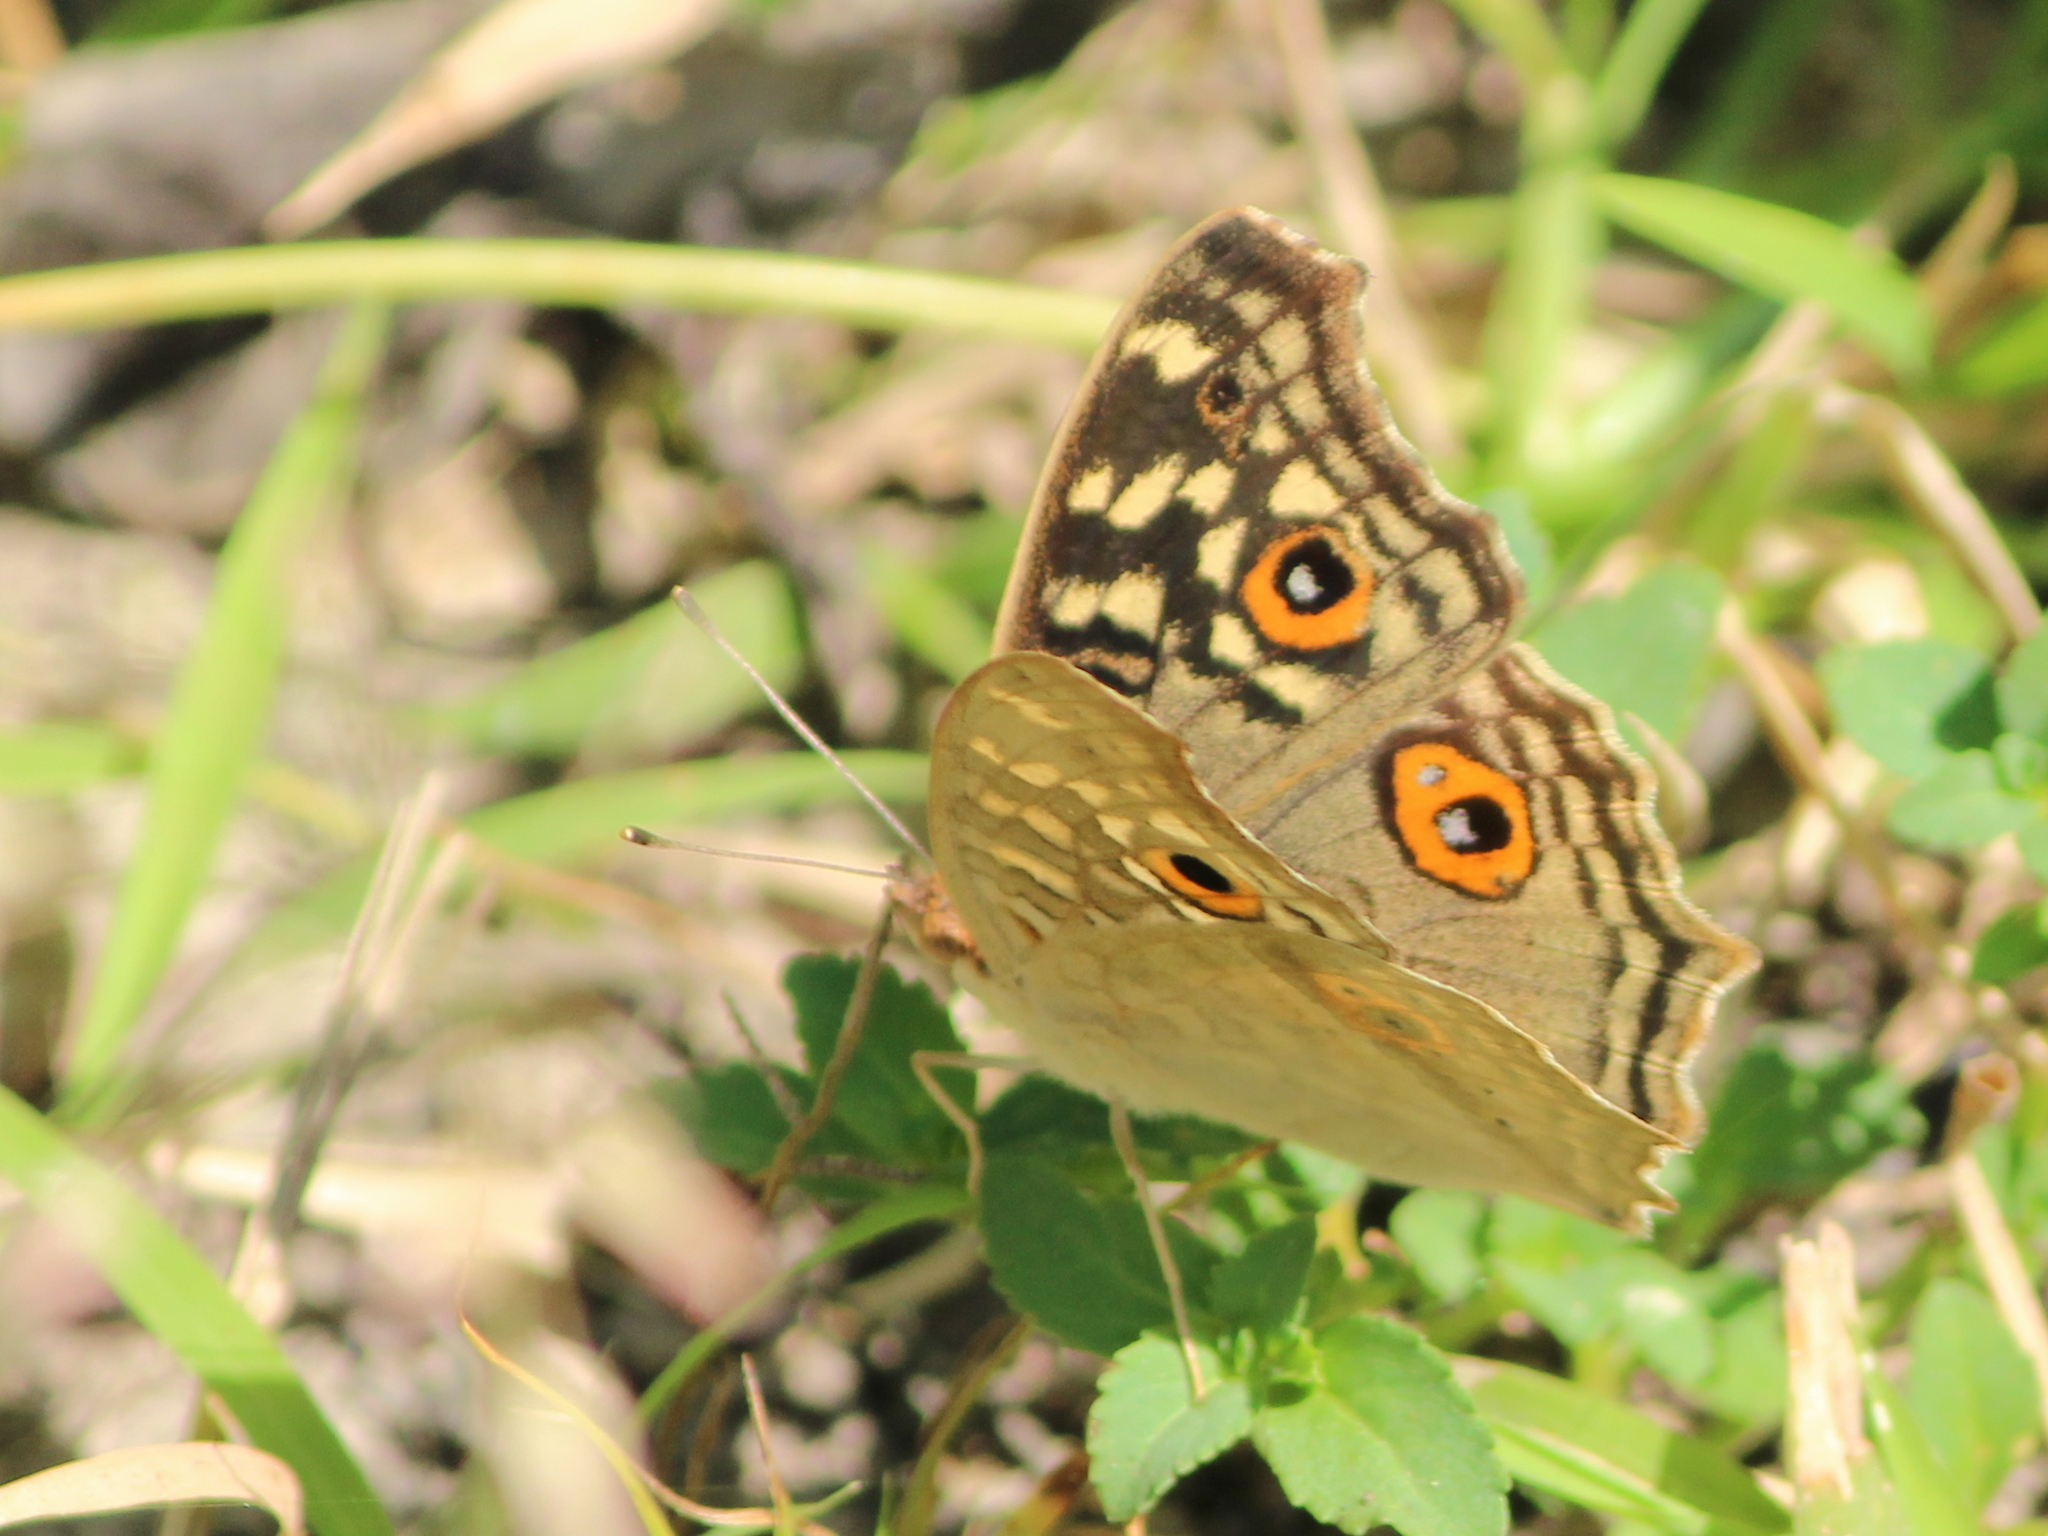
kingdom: Animalia
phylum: Arthropoda
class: Insecta
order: Lepidoptera
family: Nymphalidae
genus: Junonia
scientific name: Junonia lemonias
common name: Lemon pansy
